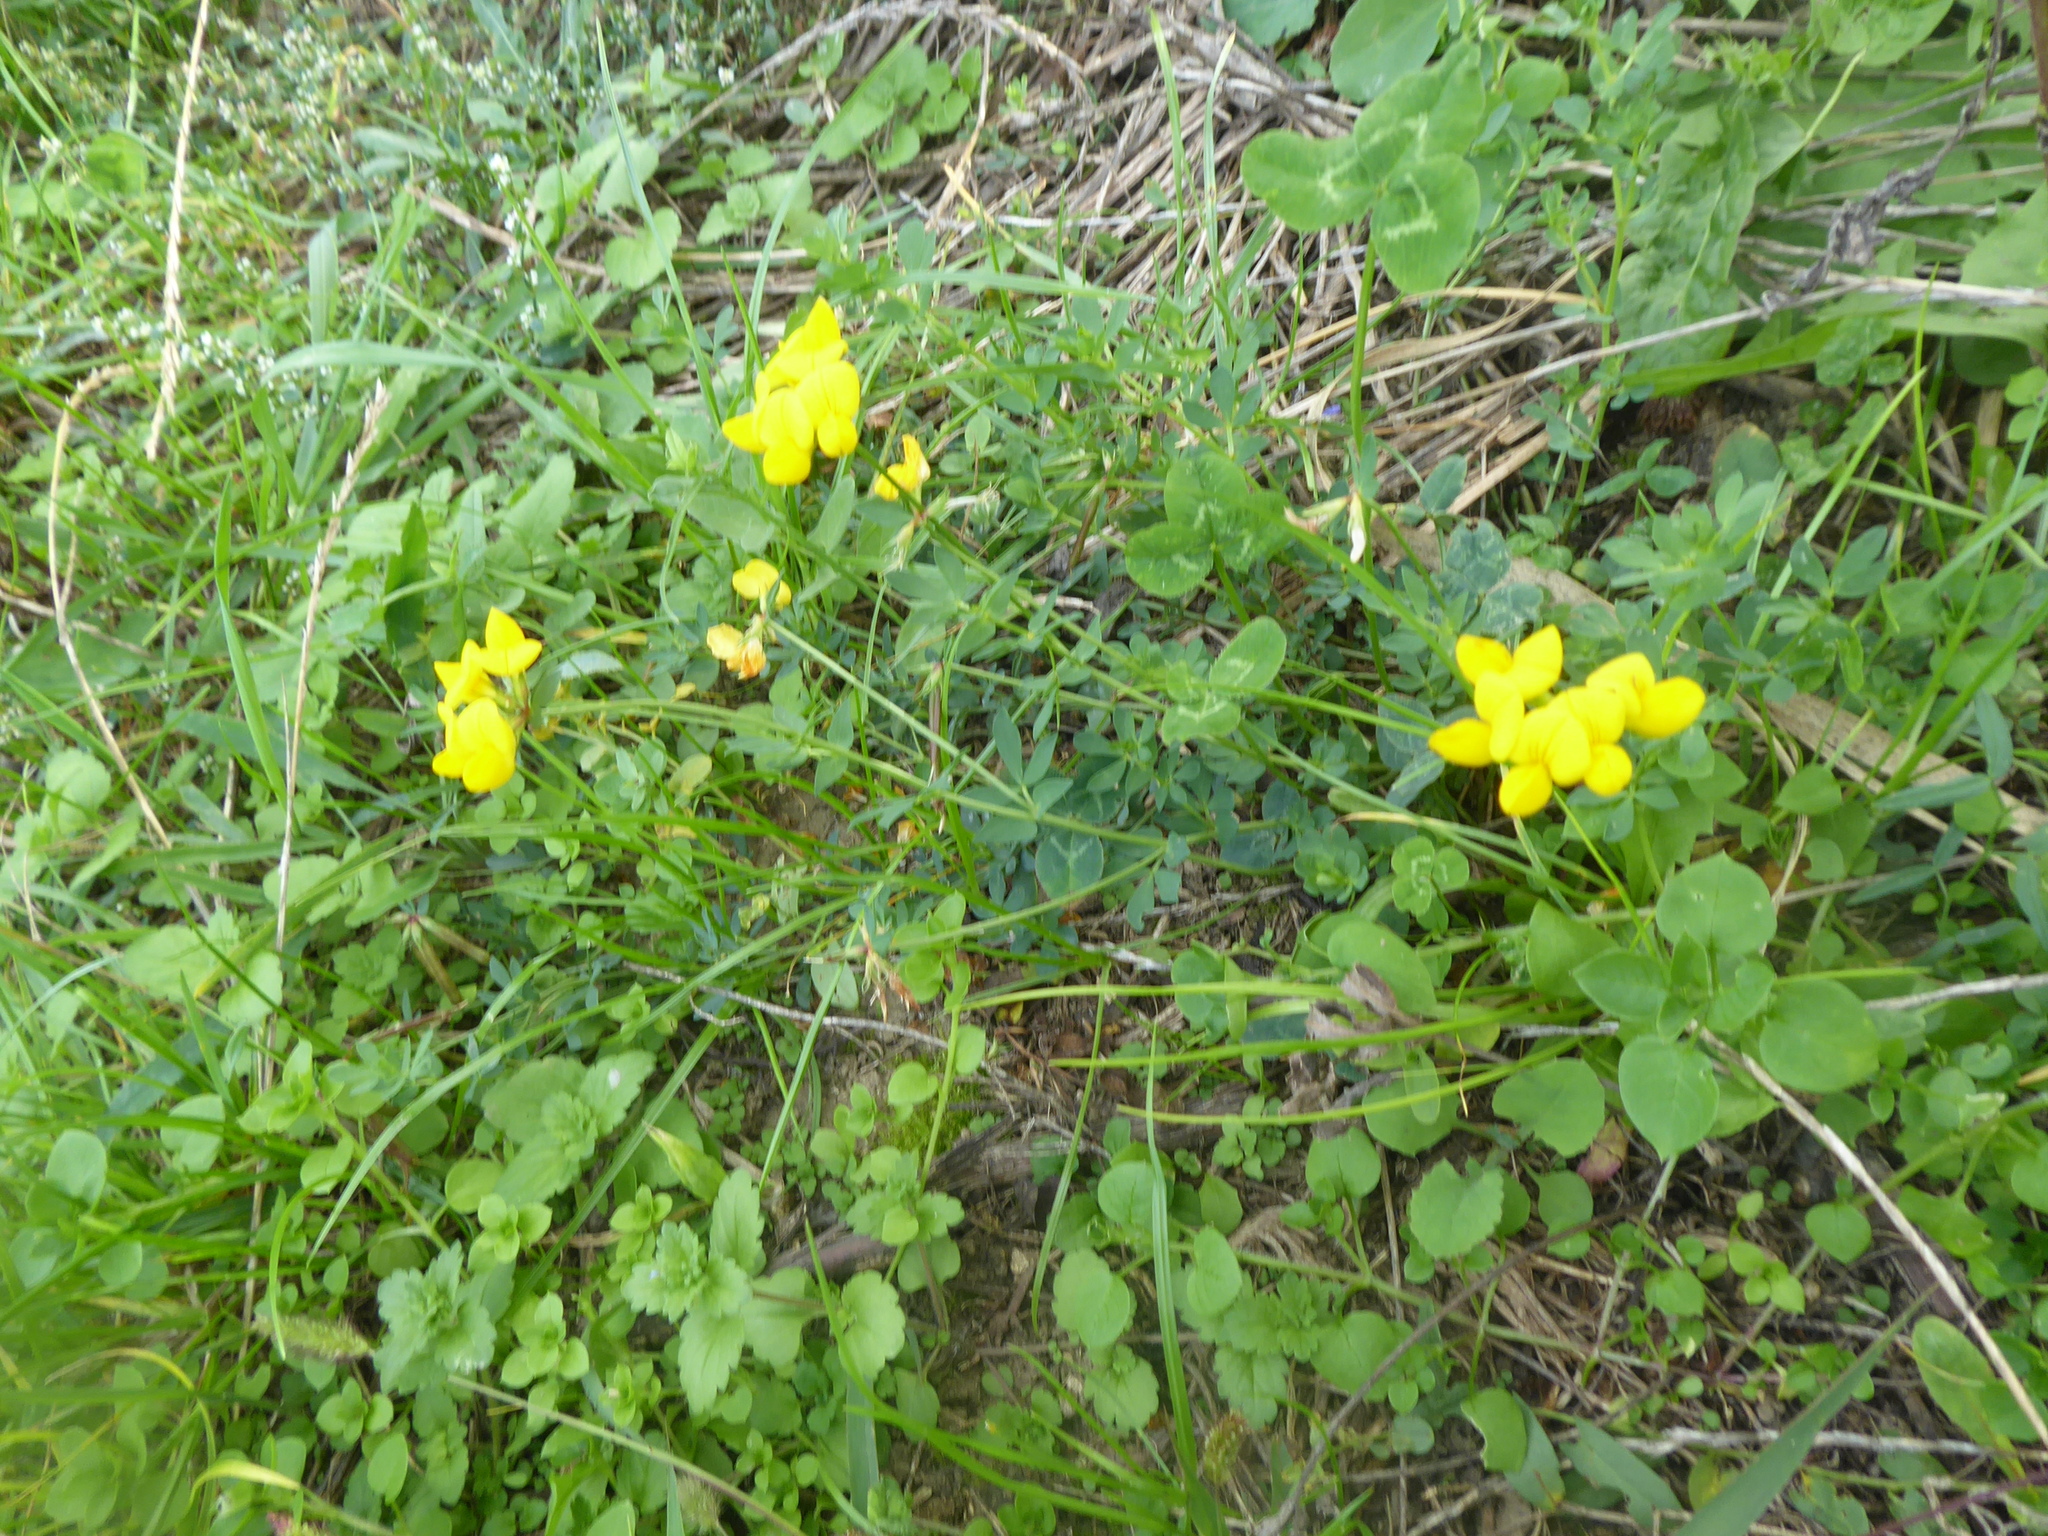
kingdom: Plantae
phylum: Tracheophyta
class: Magnoliopsida
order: Fabales
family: Fabaceae
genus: Lotus
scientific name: Lotus corniculatus
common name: Common bird's-foot-trefoil
